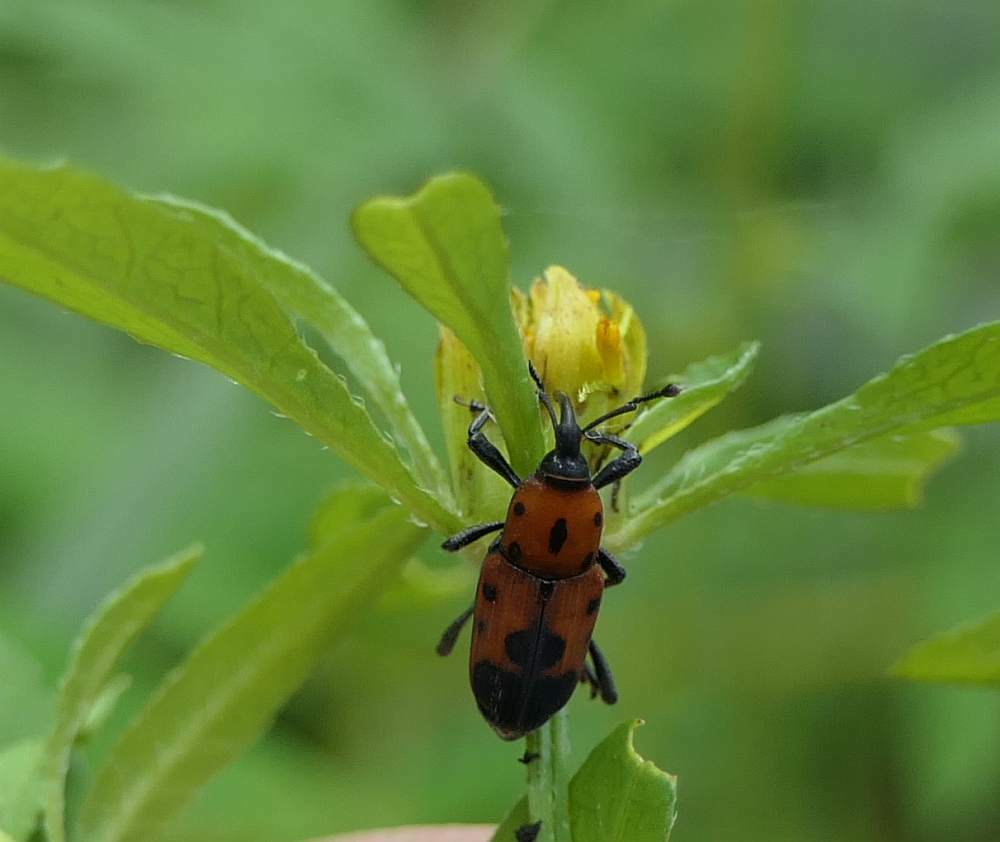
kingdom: Animalia
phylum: Arthropoda
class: Insecta
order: Coleoptera
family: Dryophthoridae
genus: Rhodobaenus
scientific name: Rhodobaenus quinquepunctatus
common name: Cocklebur weevil
